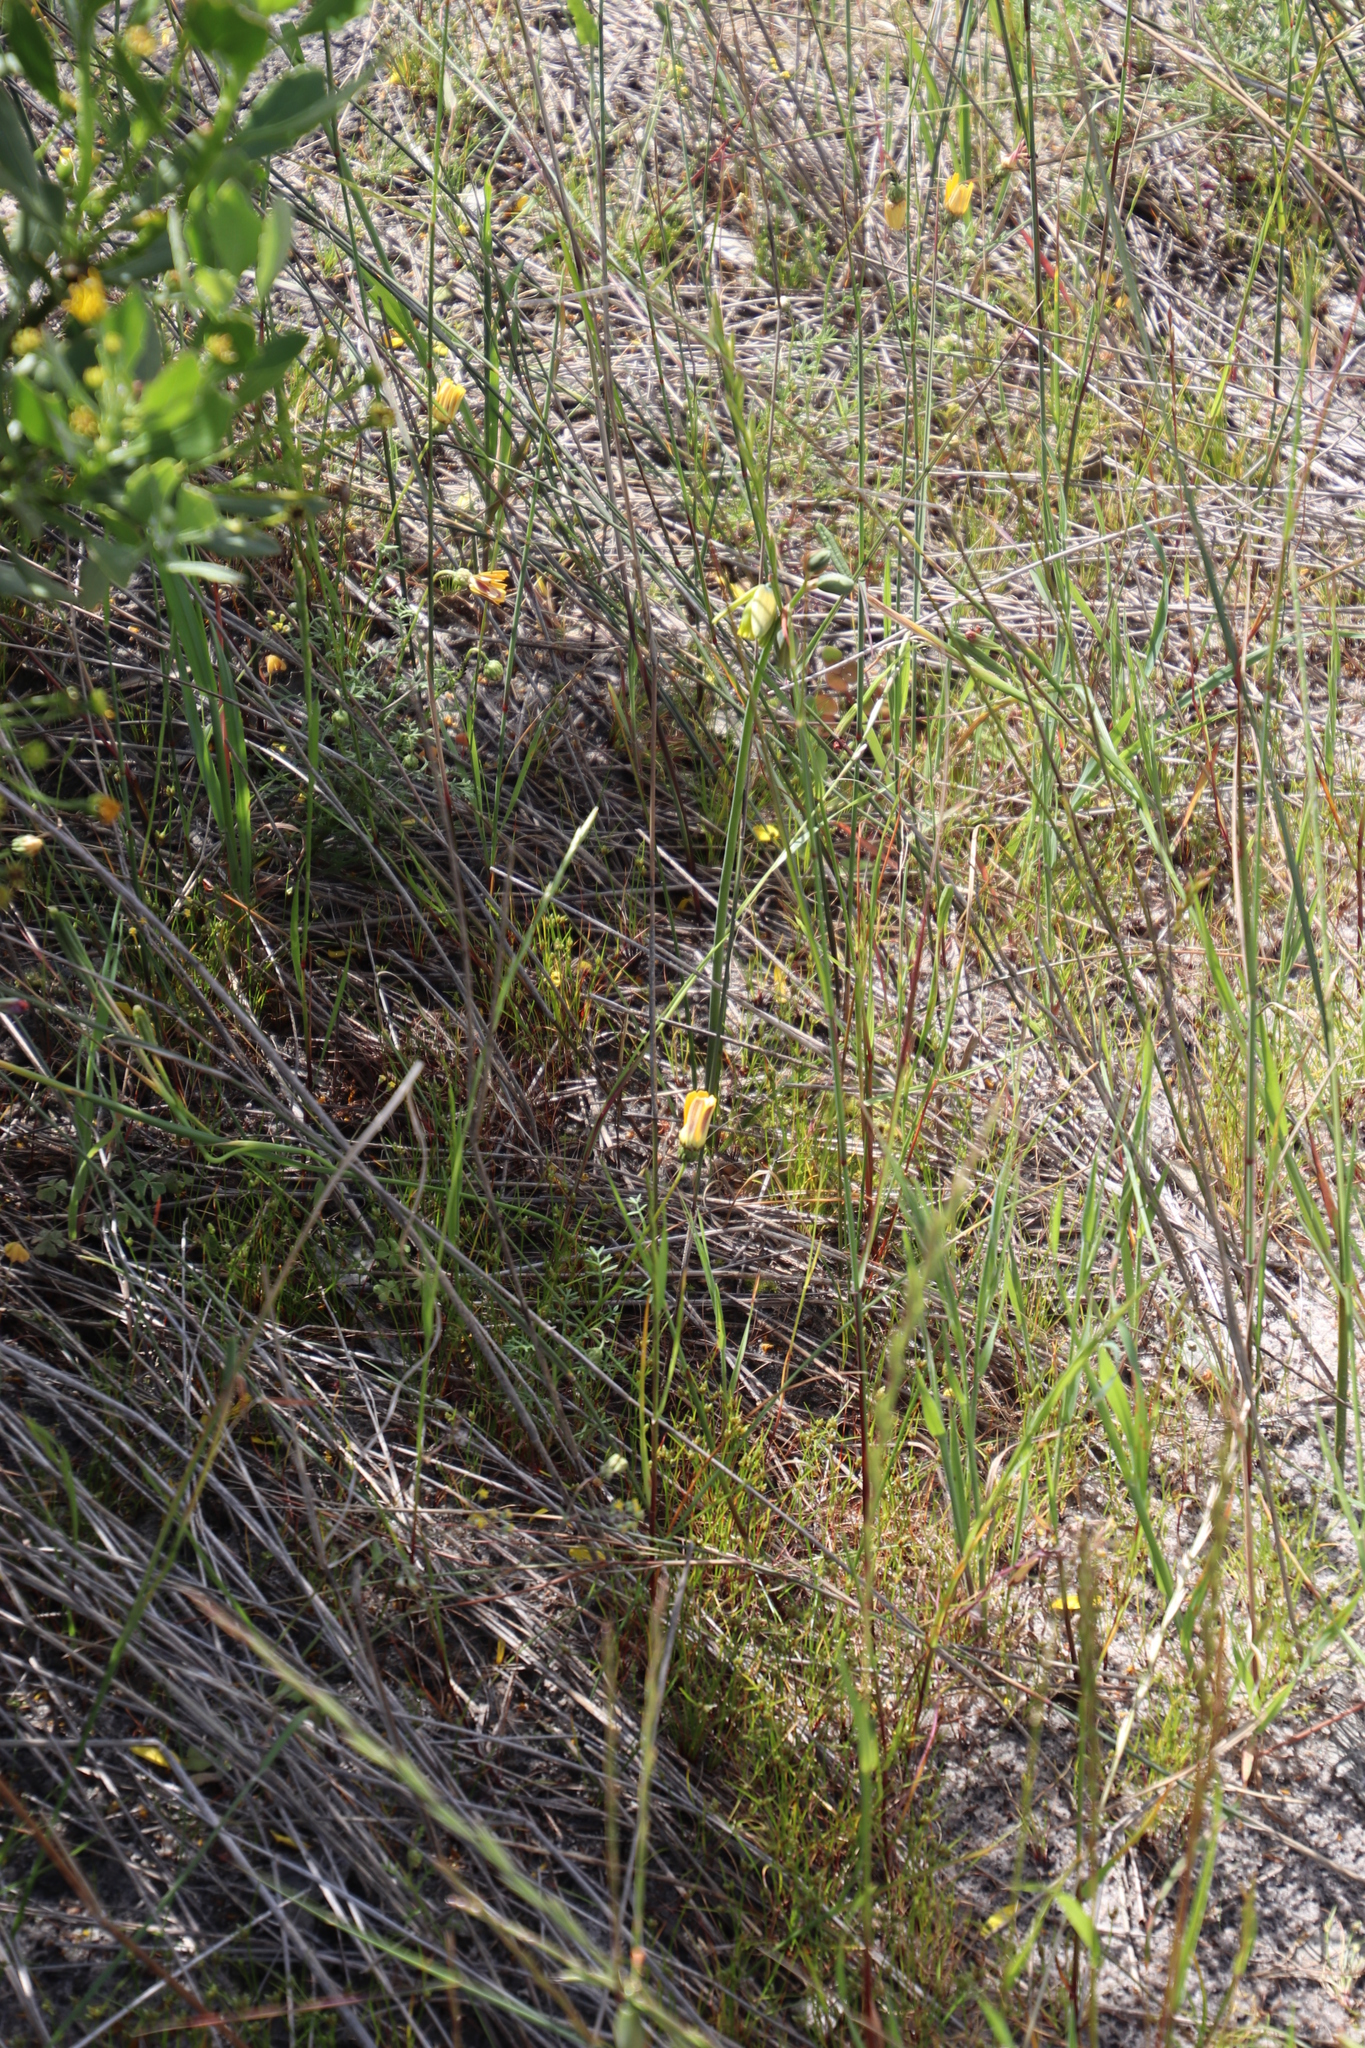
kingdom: Plantae
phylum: Tracheophyta
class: Liliopsida
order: Asparagales
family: Asparagaceae
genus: Albuca
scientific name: Albuca cooperi
